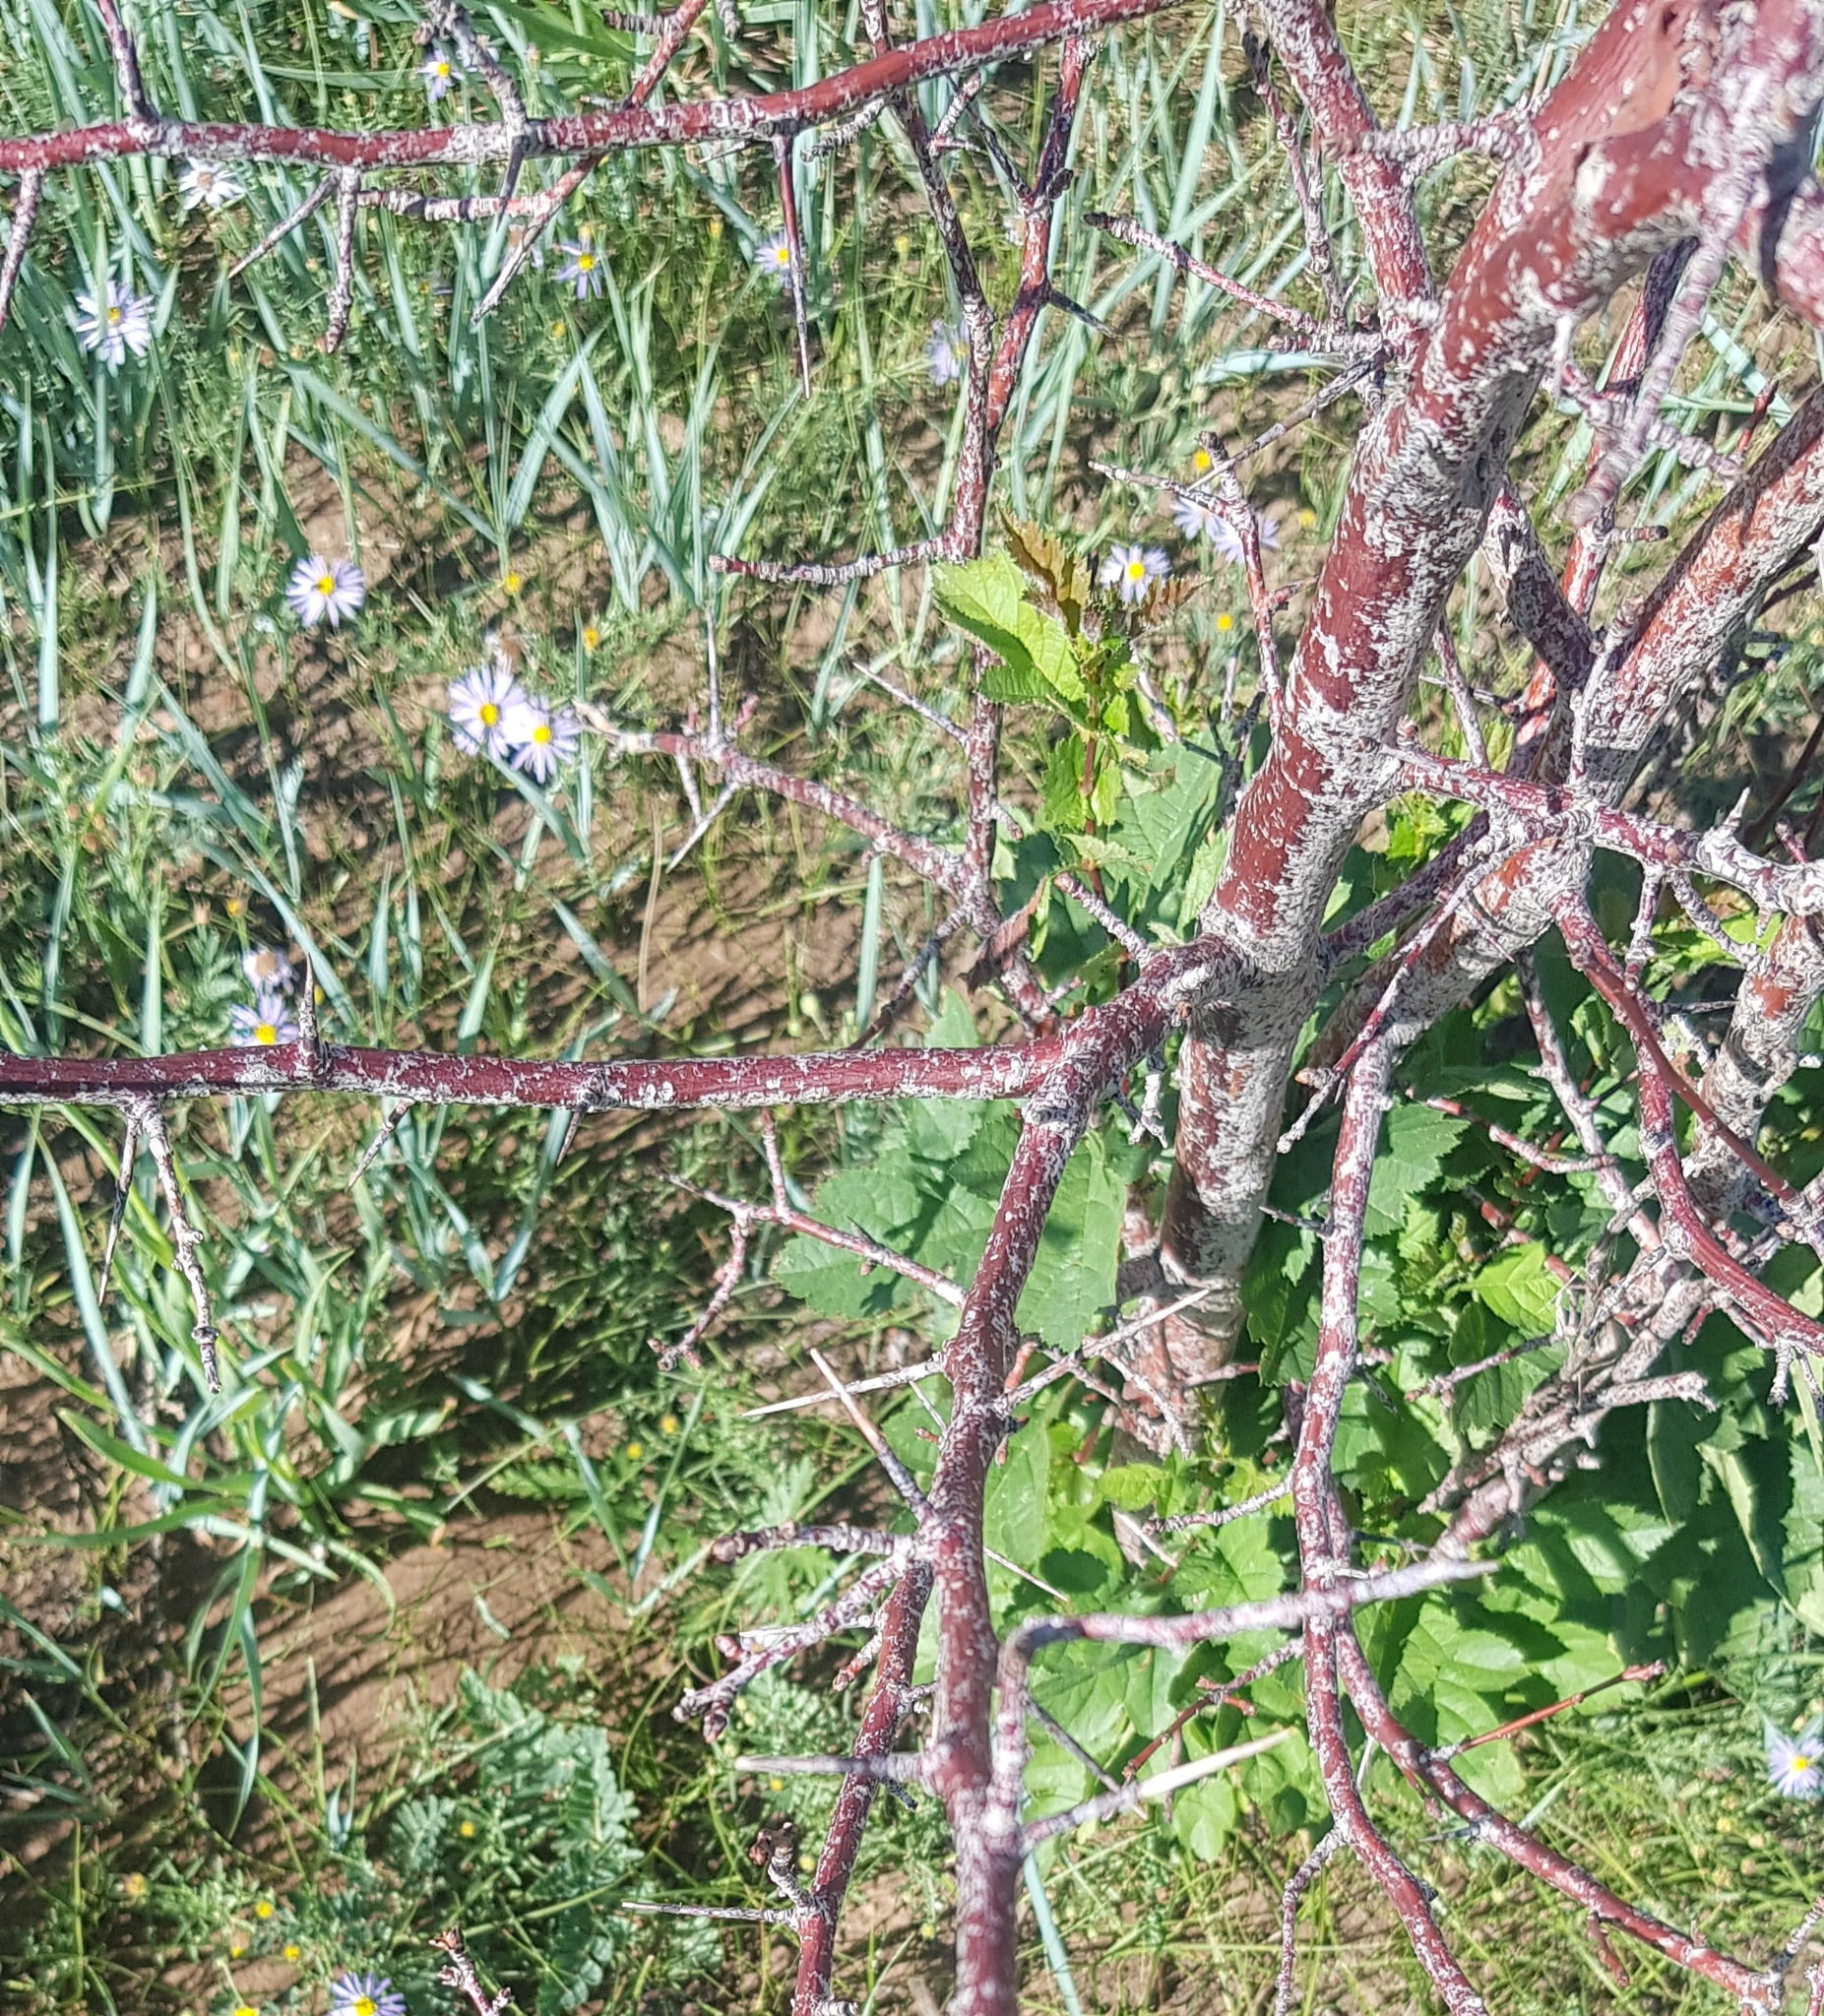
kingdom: Plantae
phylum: Tracheophyta
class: Magnoliopsida
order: Rosales
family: Rosaceae
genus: Crataegus
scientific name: Crataegus sanguinea
